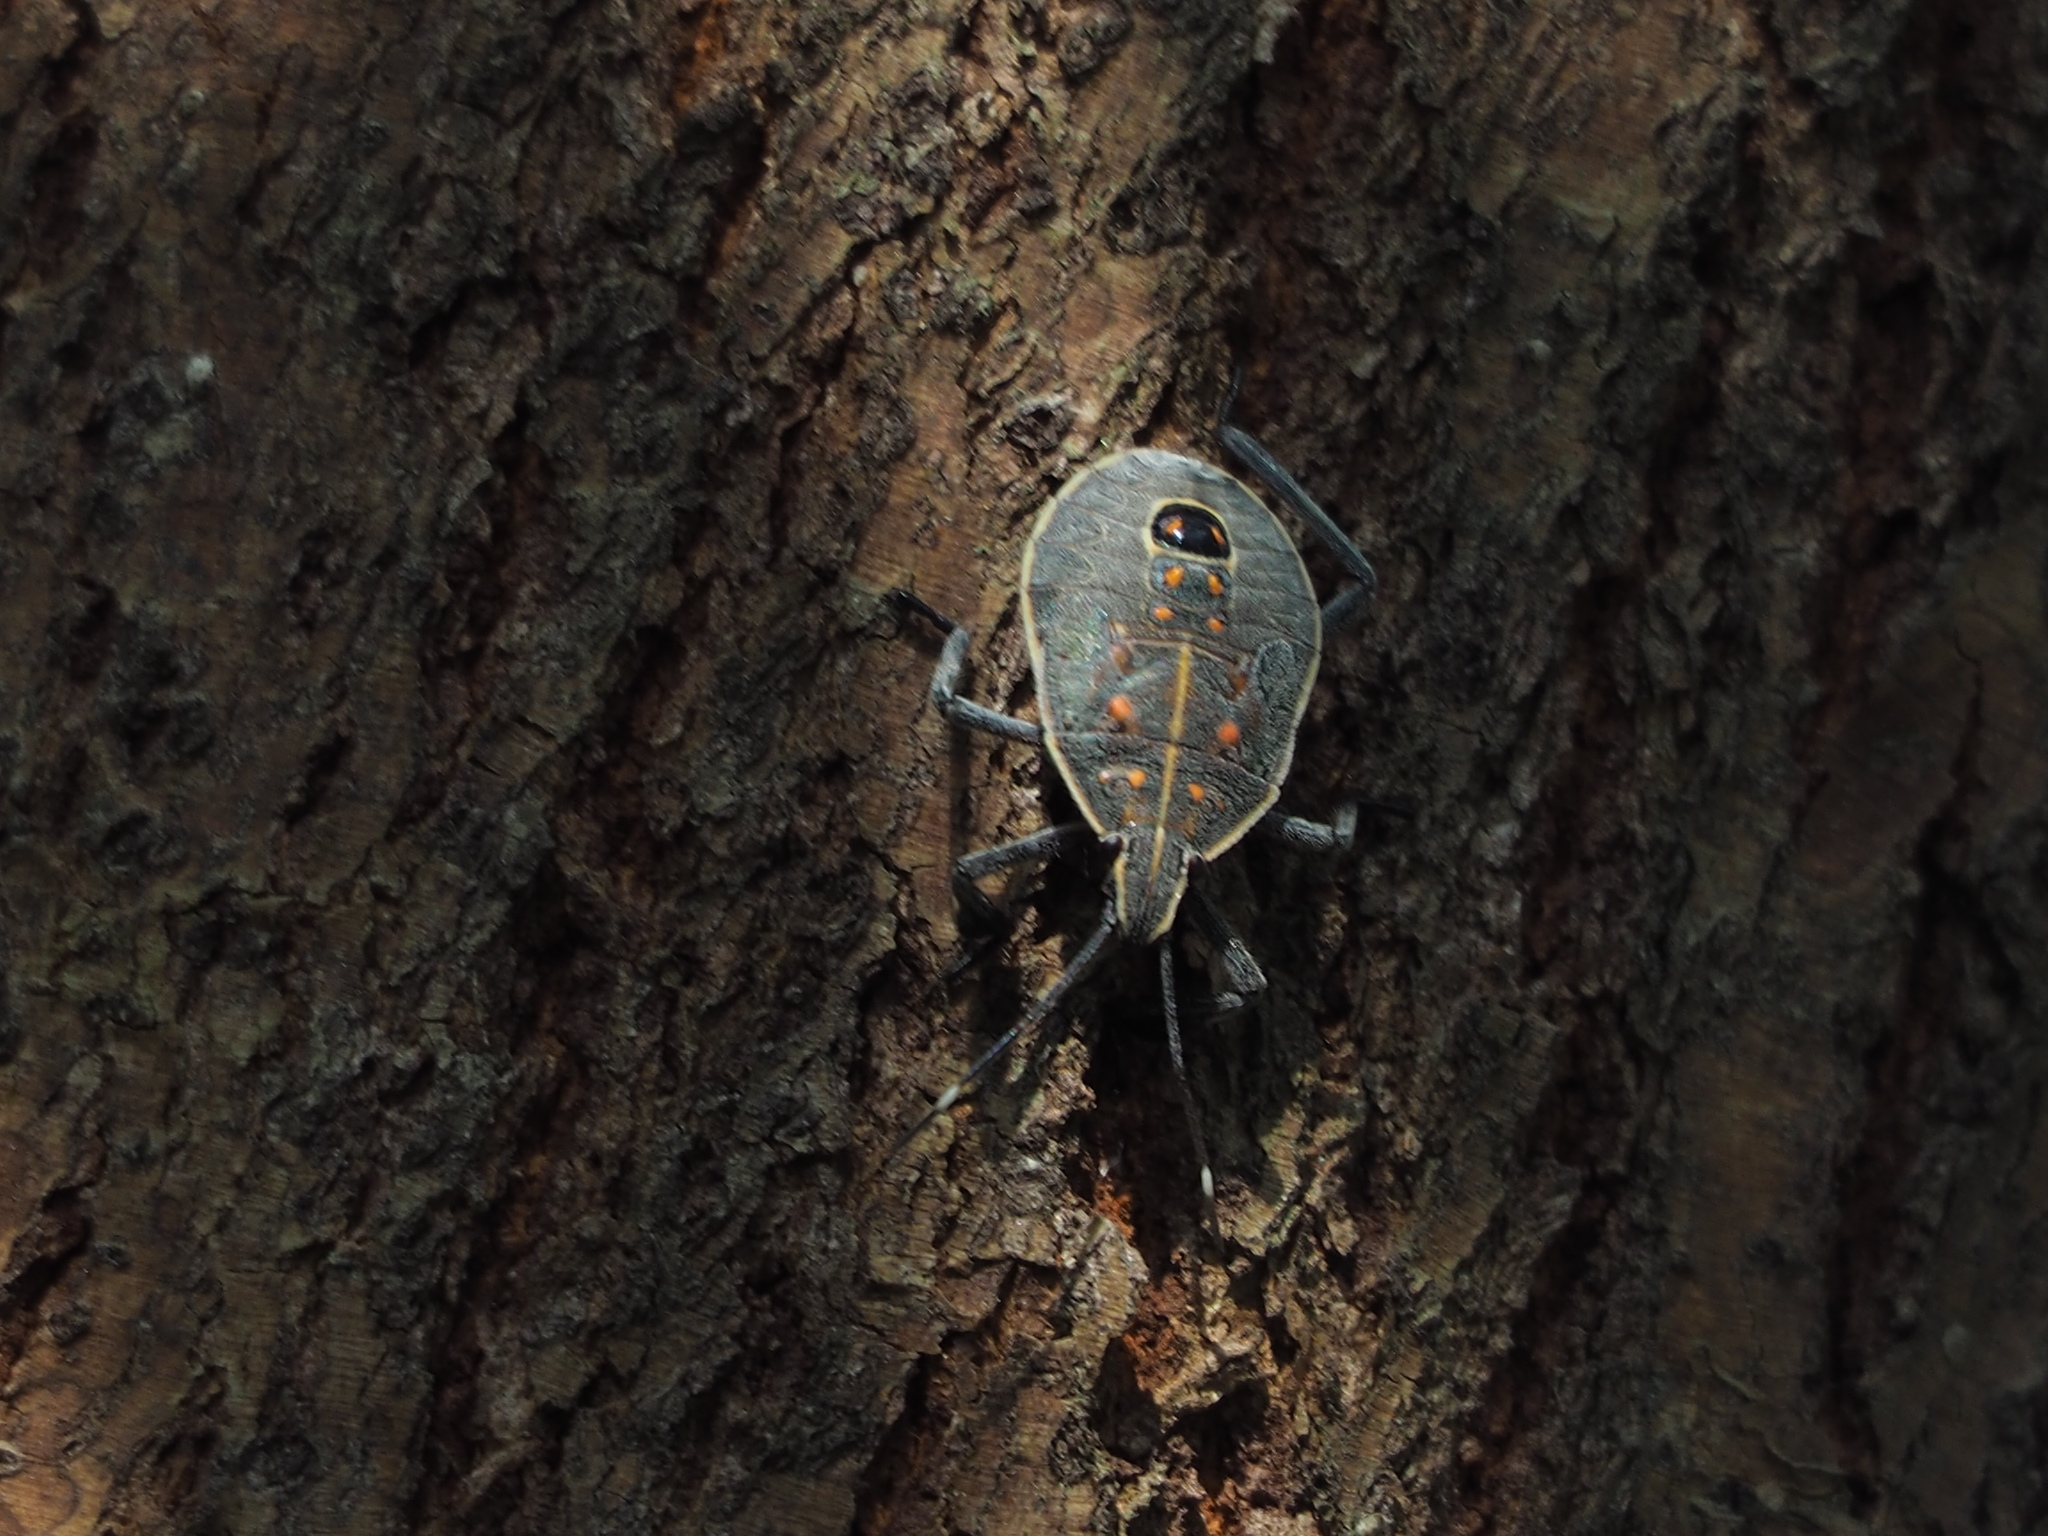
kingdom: Animalia
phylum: Arthropoda
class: Insecta
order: Hemiptera
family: Pentatomidae
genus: Erthesina
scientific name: Erthesina fullo
